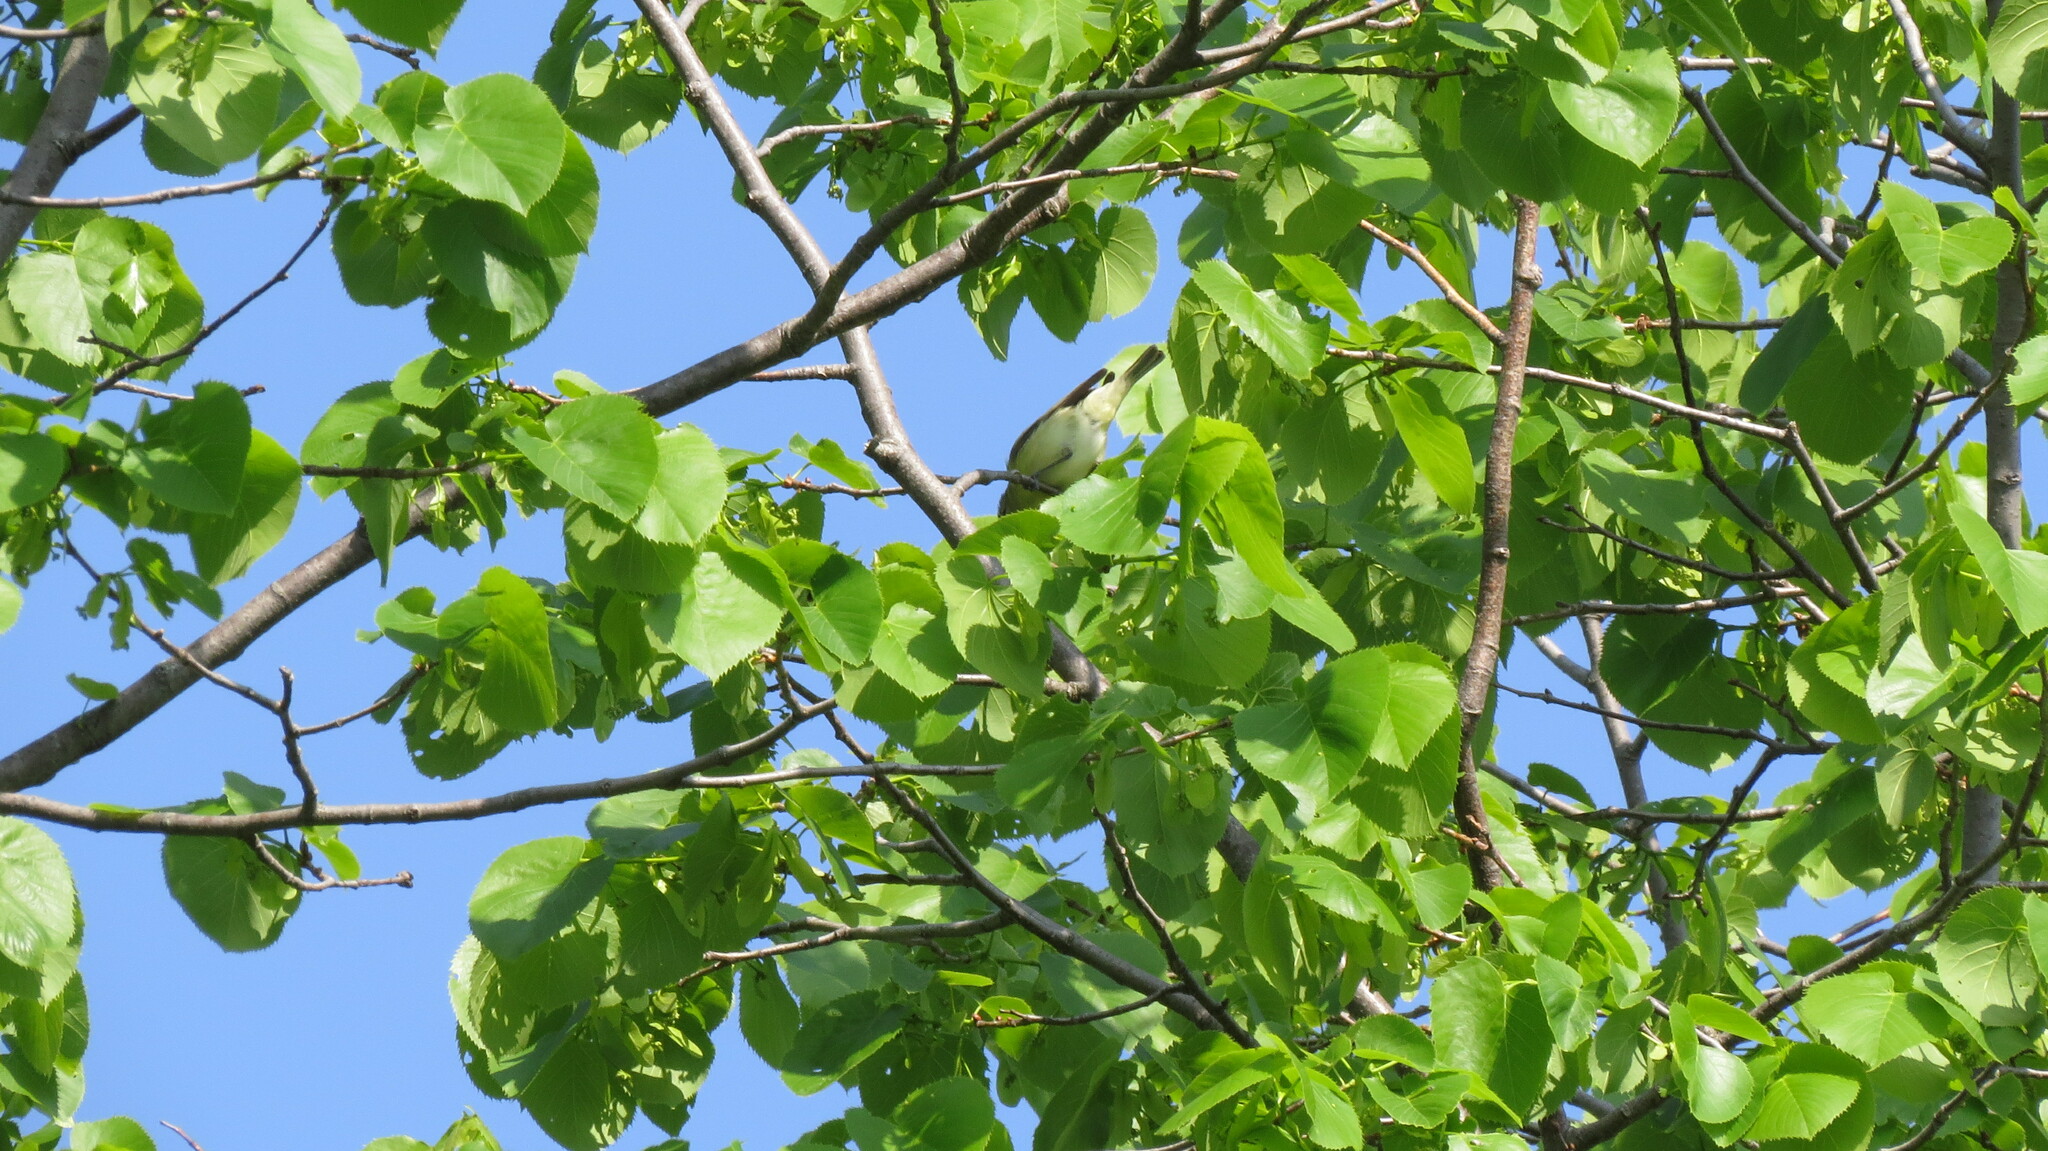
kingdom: Animalia
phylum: Chordata
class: Aves
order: Passeriformes
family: Vireonidae
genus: Vireo
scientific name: Vireo philadelphicus
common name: Philadelphia vireo
